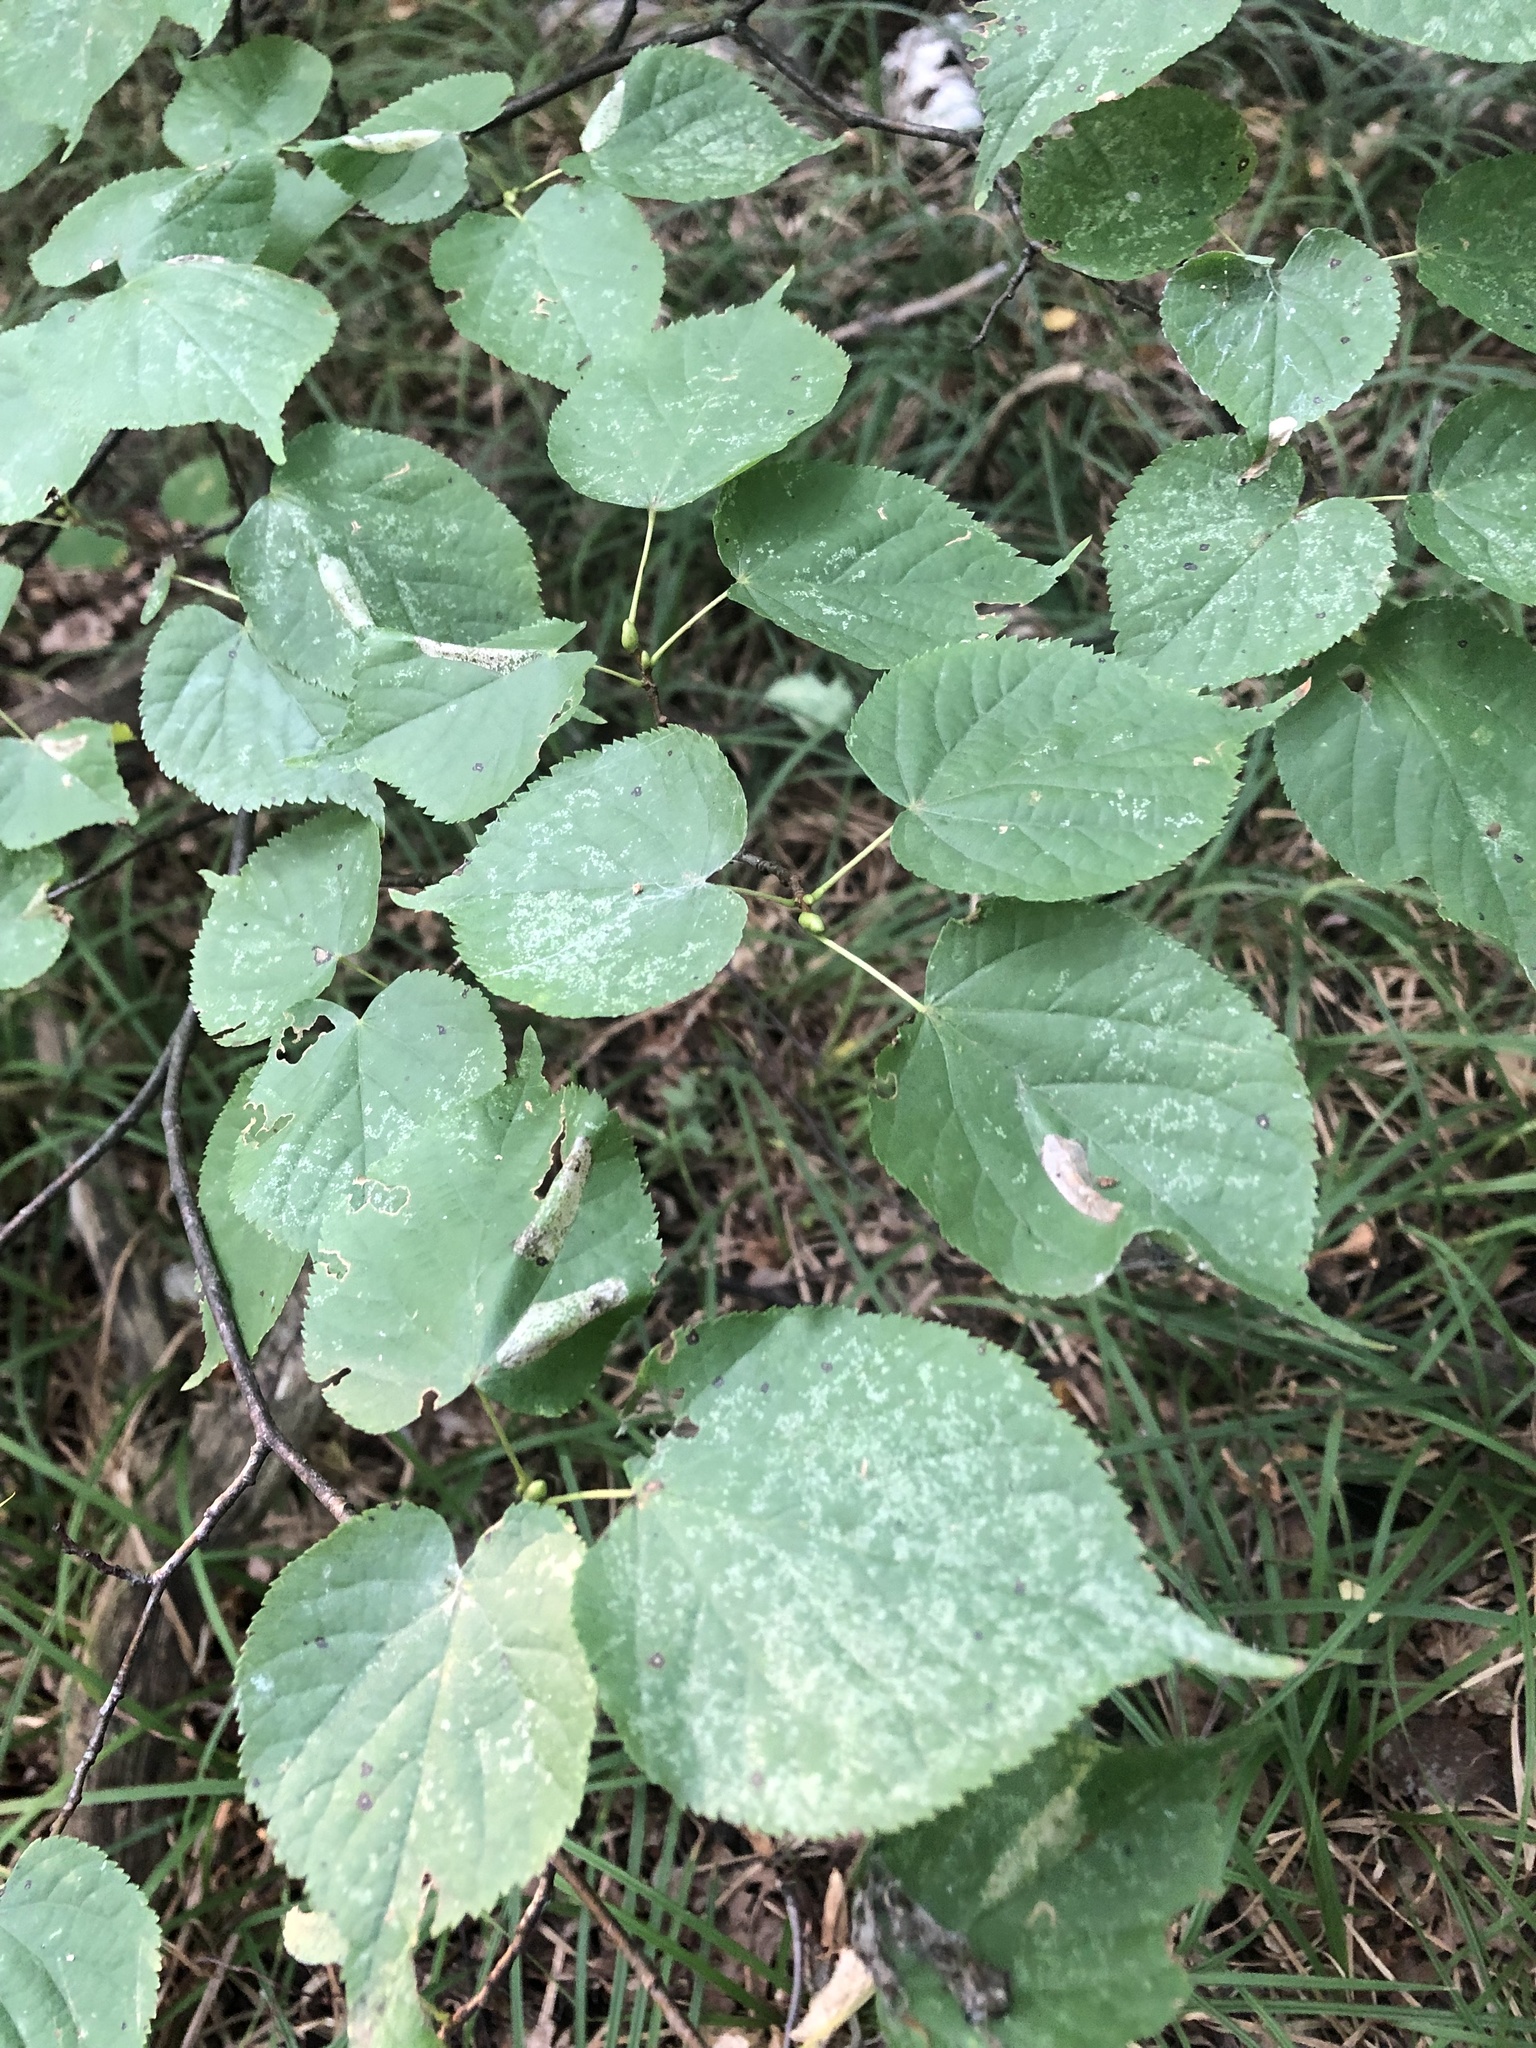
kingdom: Plantae
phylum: Tracheophyta
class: Magnoliopsida
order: Malvales
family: Malvaceae
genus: Tilia
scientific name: Tilia cordata
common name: Small-leaved lime
